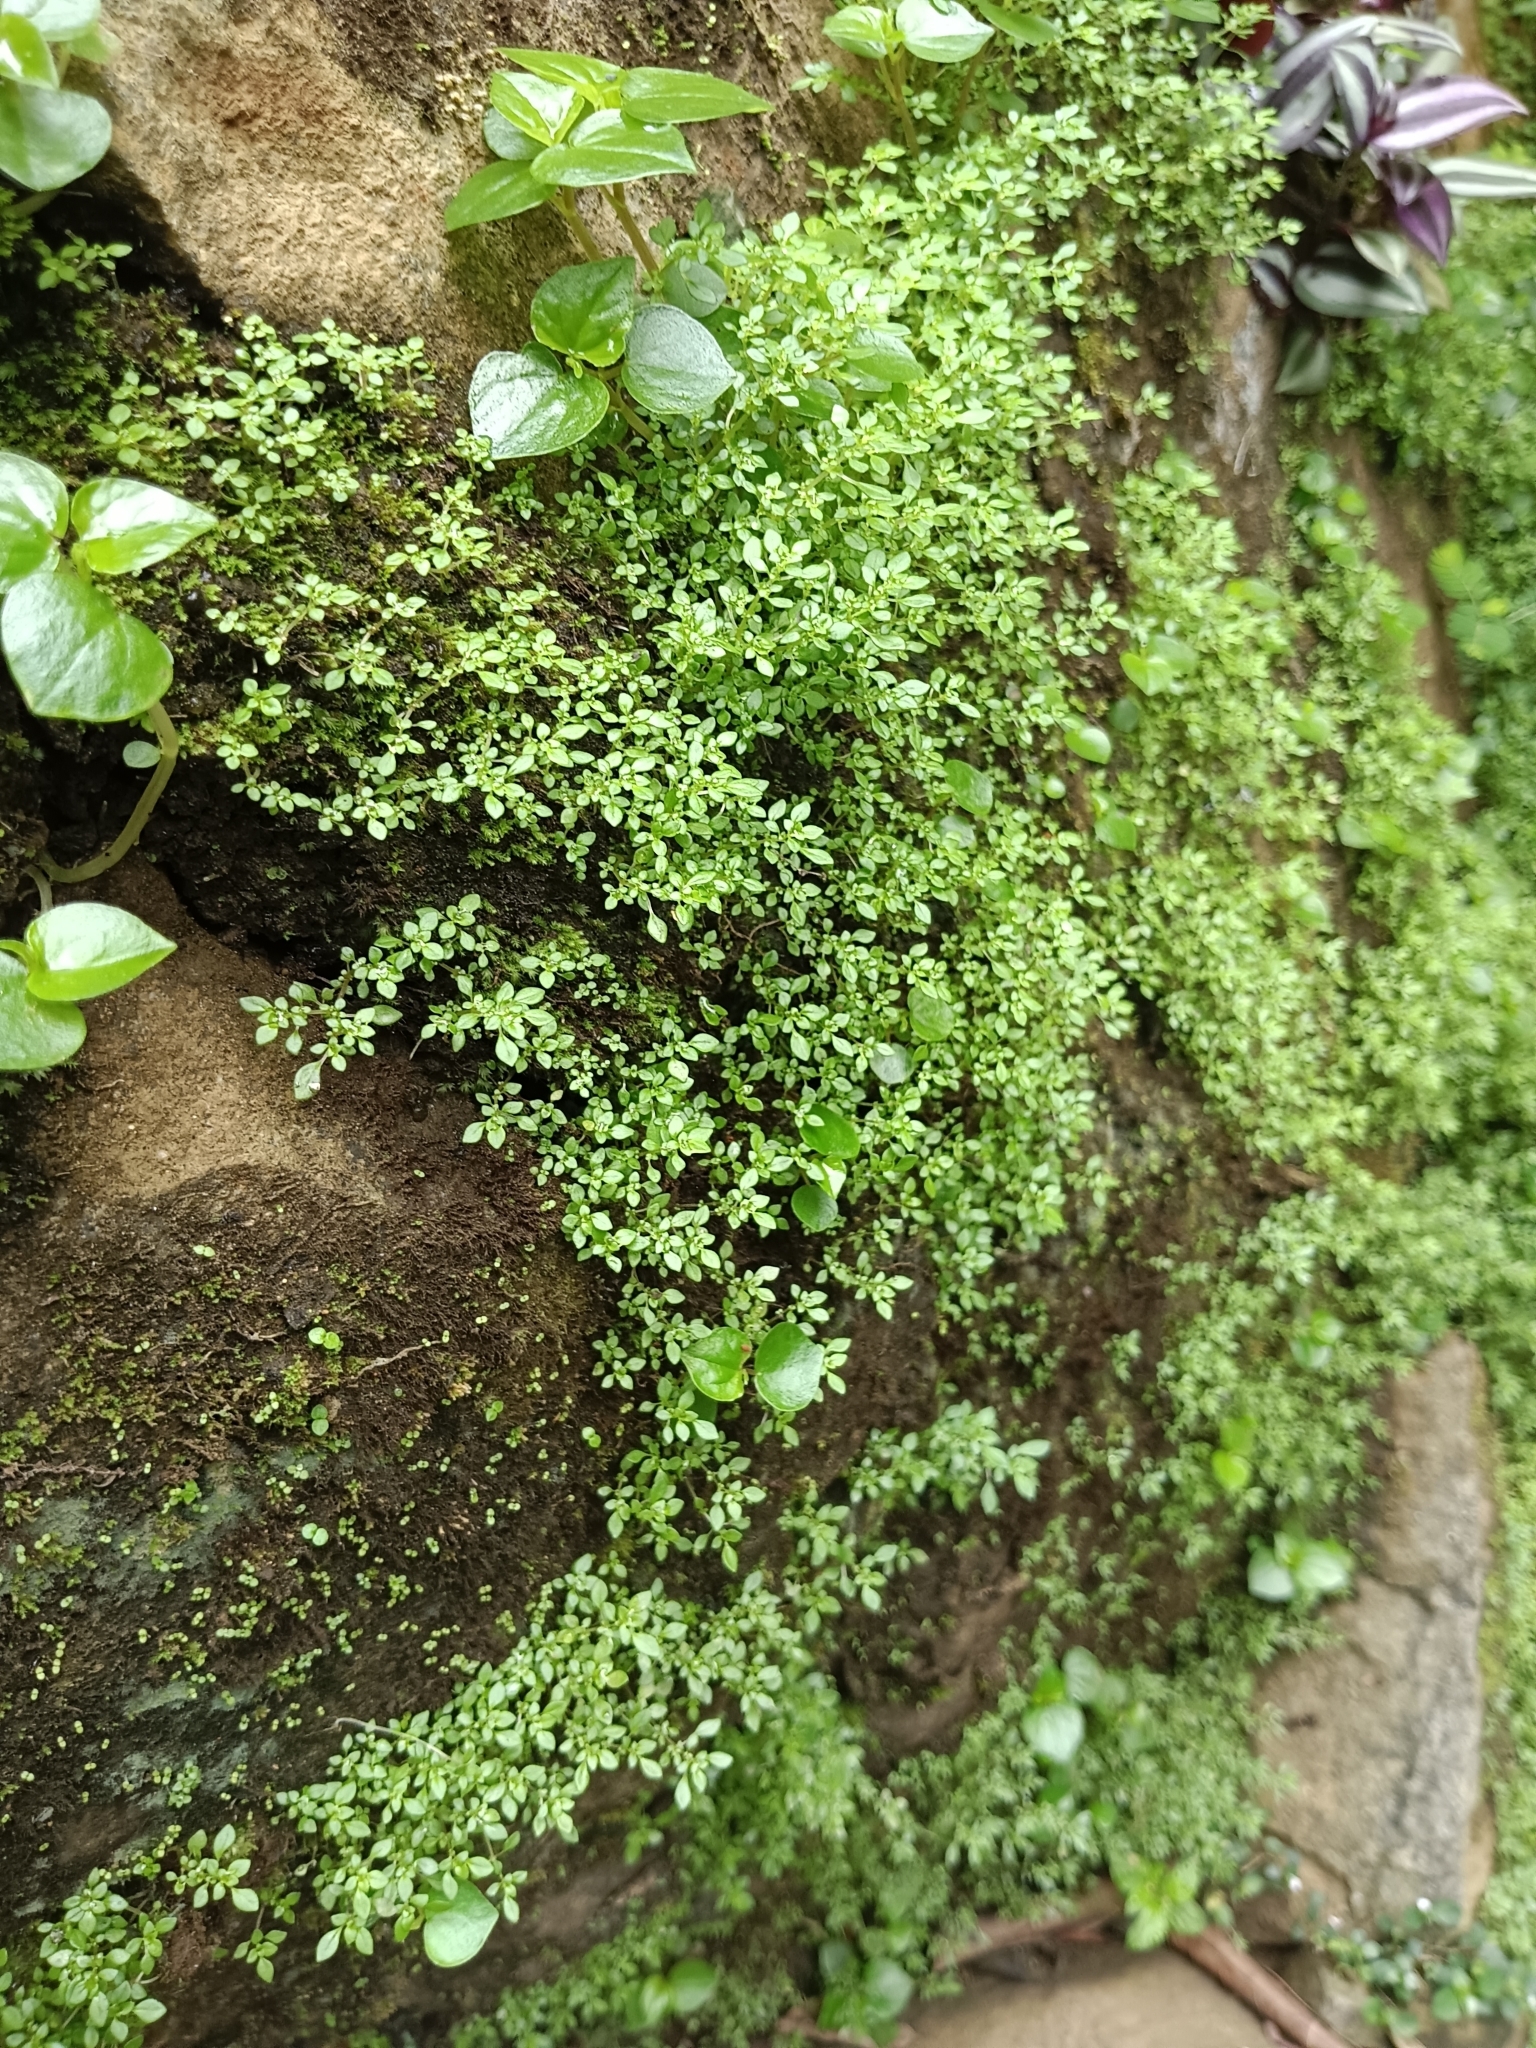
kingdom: Plantae
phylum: Tracheophyta
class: Magnoliopsida
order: Rosales
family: Urticaceae
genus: Pilea
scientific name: Pilea microphylla
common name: Artillery-plant
